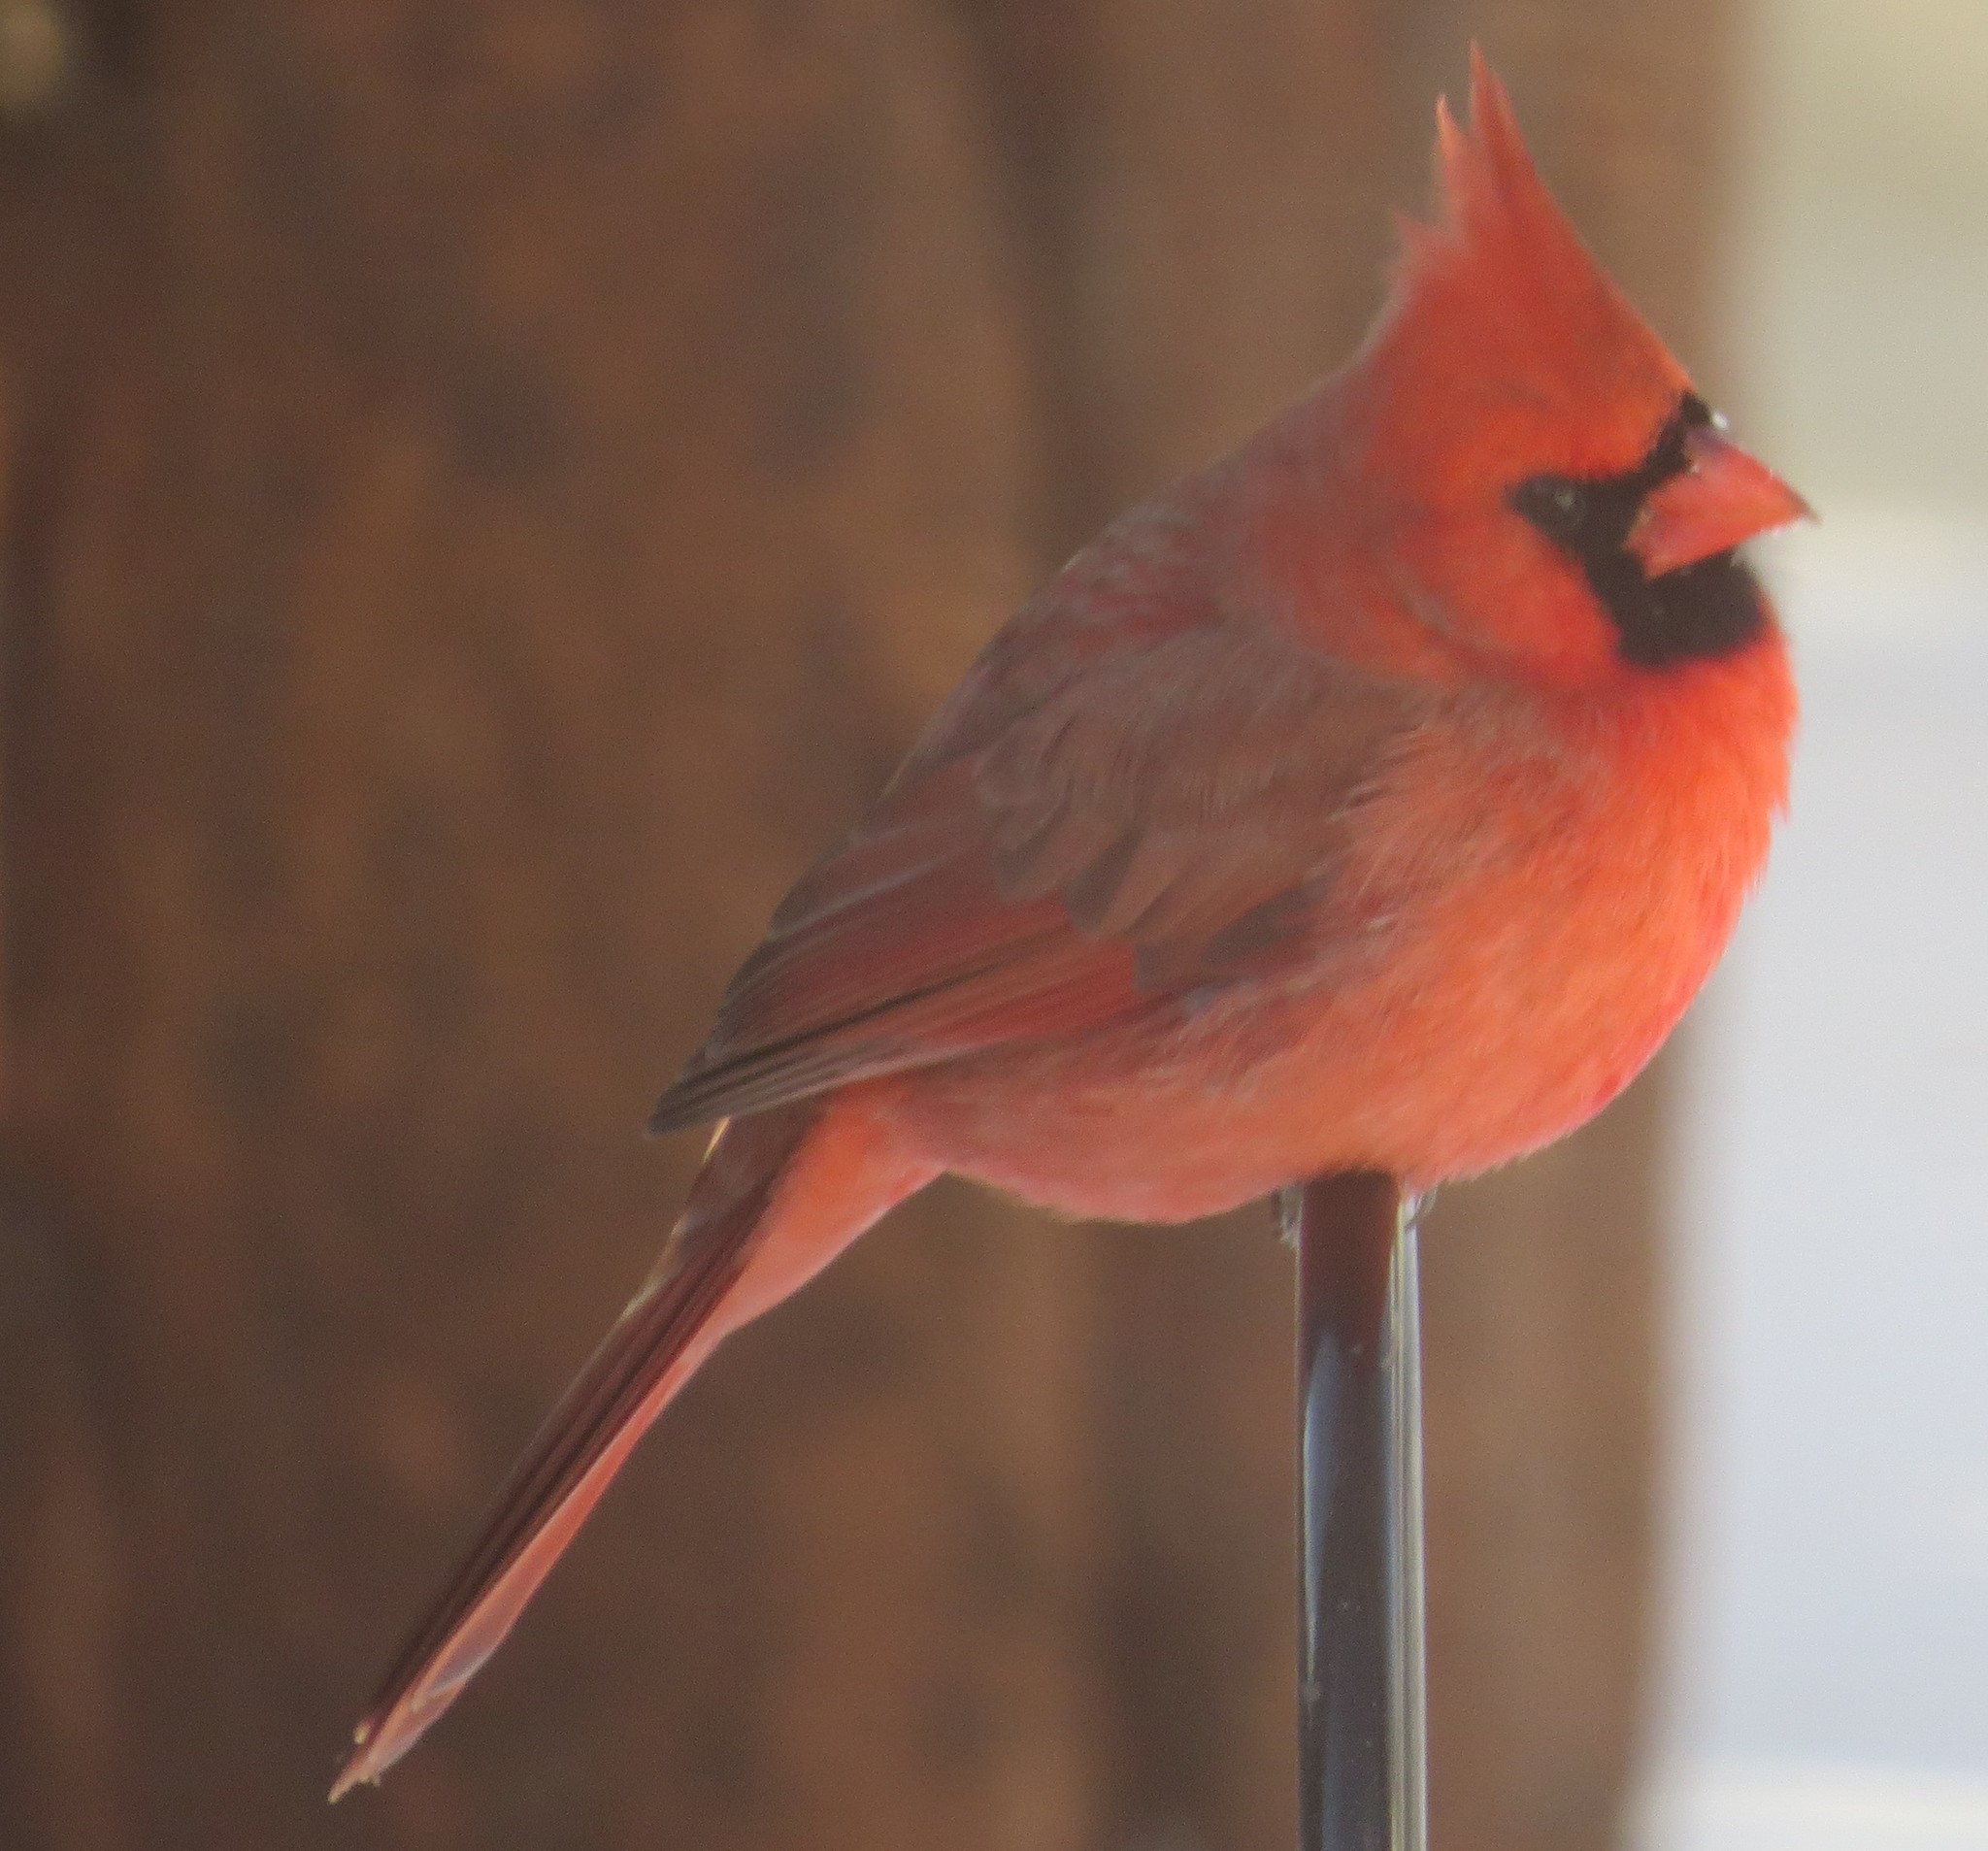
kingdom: Animalia
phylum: Chordata
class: Aves
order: Passeriformes
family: Cardinalidae
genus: Cardinalis
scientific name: Cardinalis cardinalis
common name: Northern cardinal
